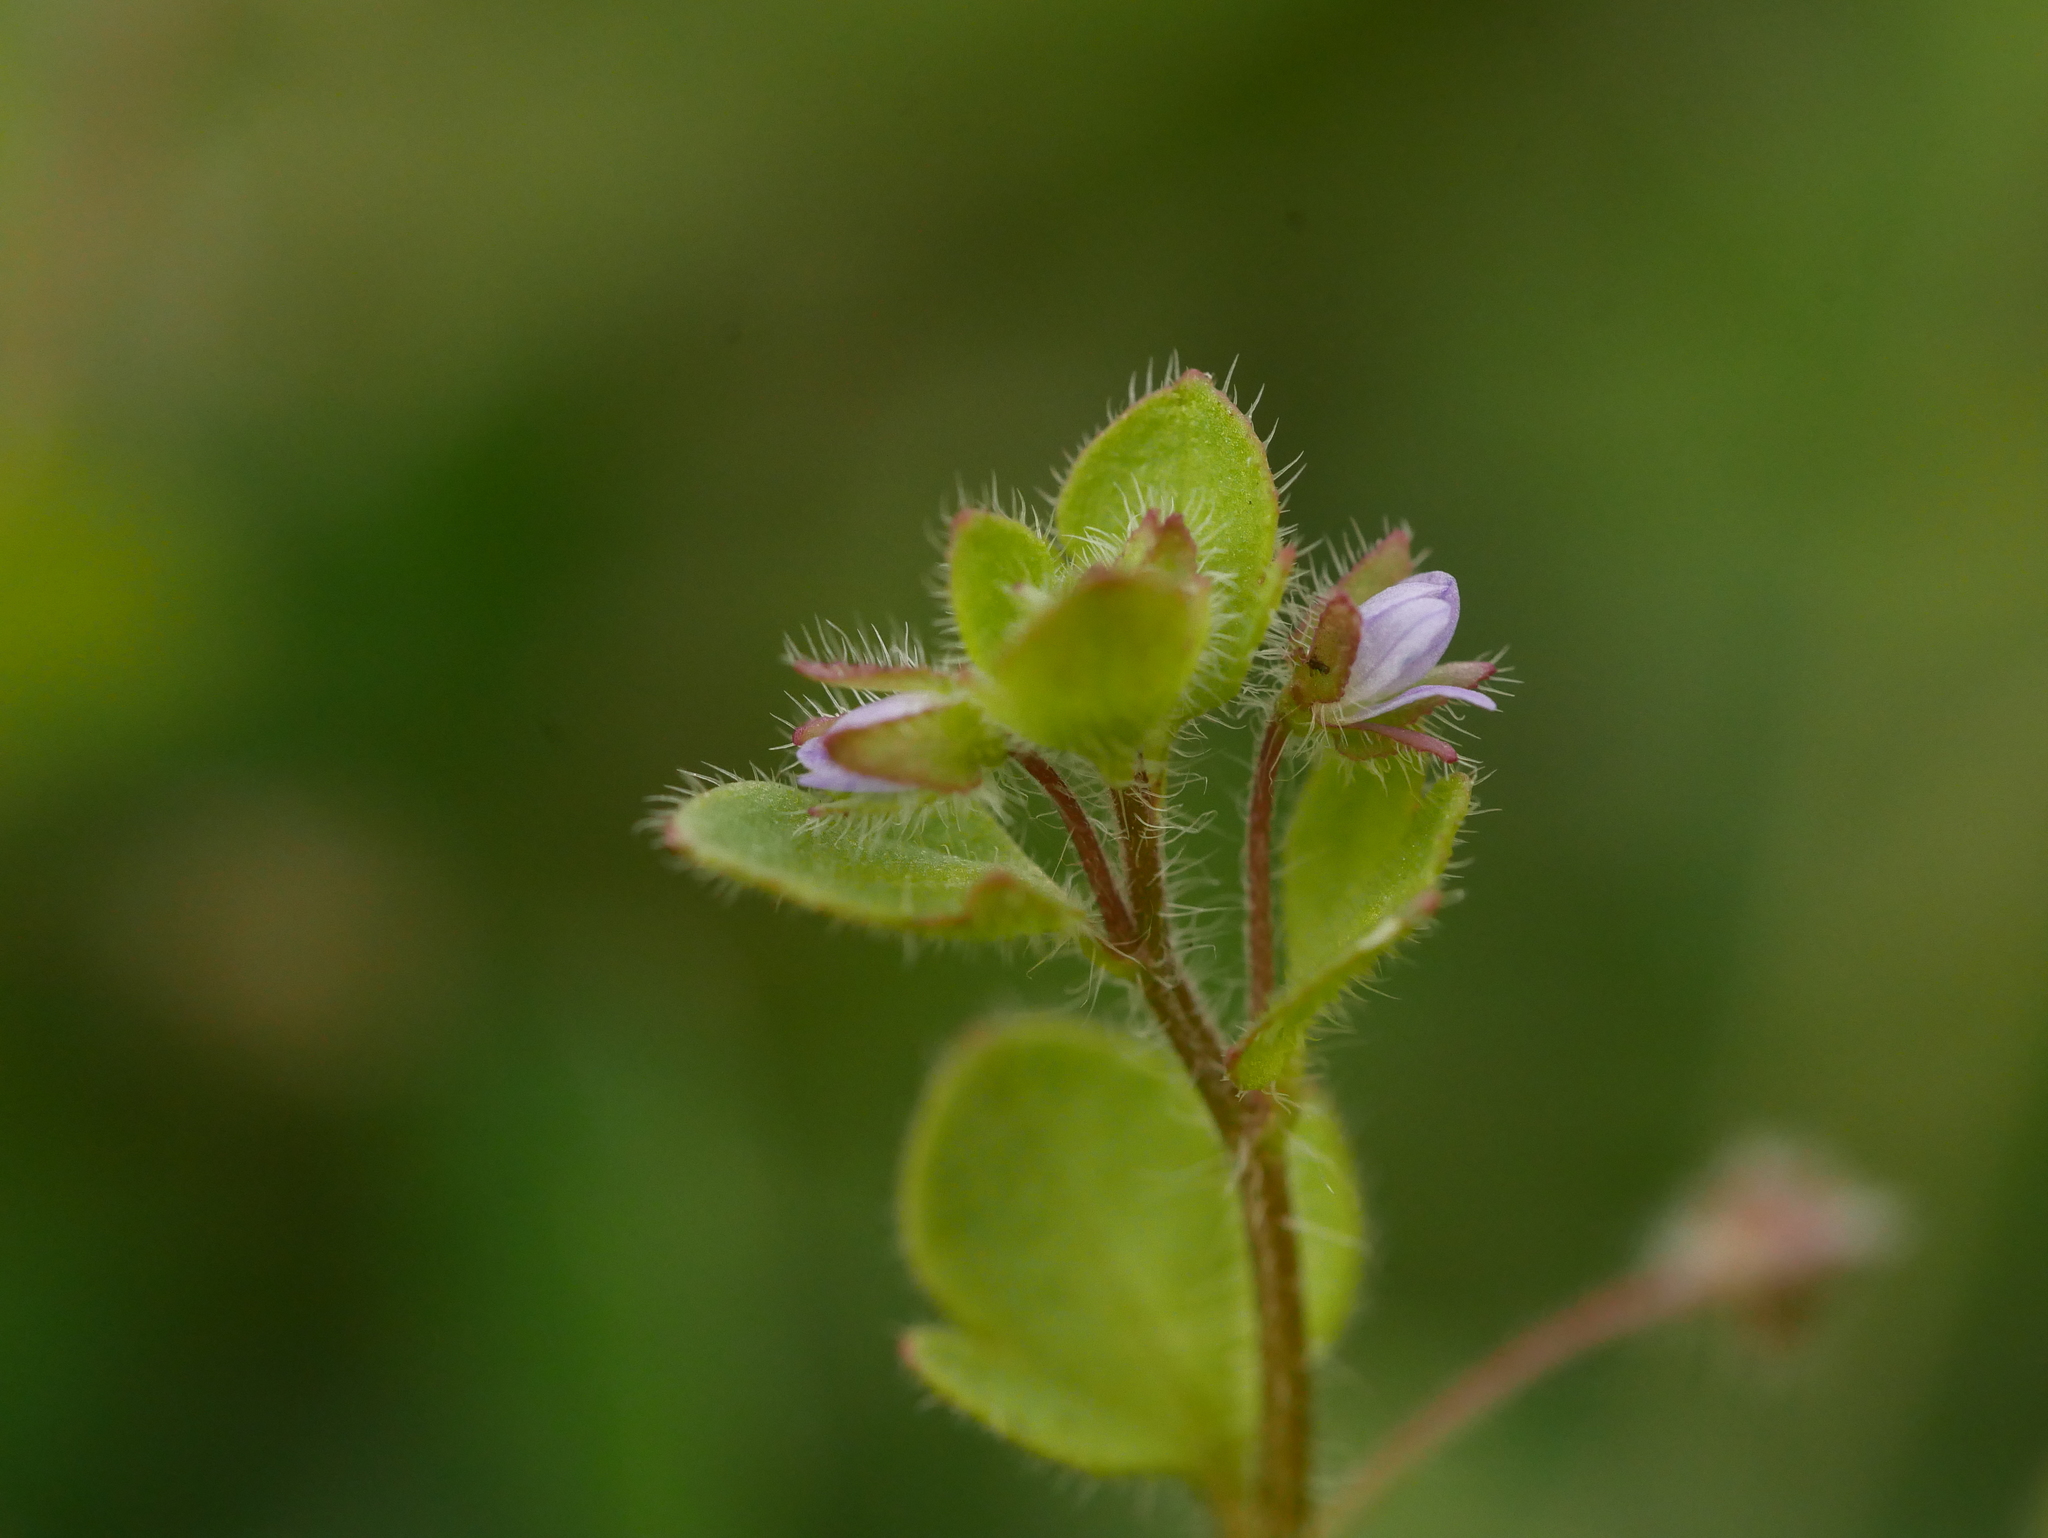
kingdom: Plantae
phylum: Tracheophyta
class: Magnoliopsida
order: Lamiales
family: Plantaginaceae
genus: Veronica
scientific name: Veronica sublobata
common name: False ivy-leaved speedwell
